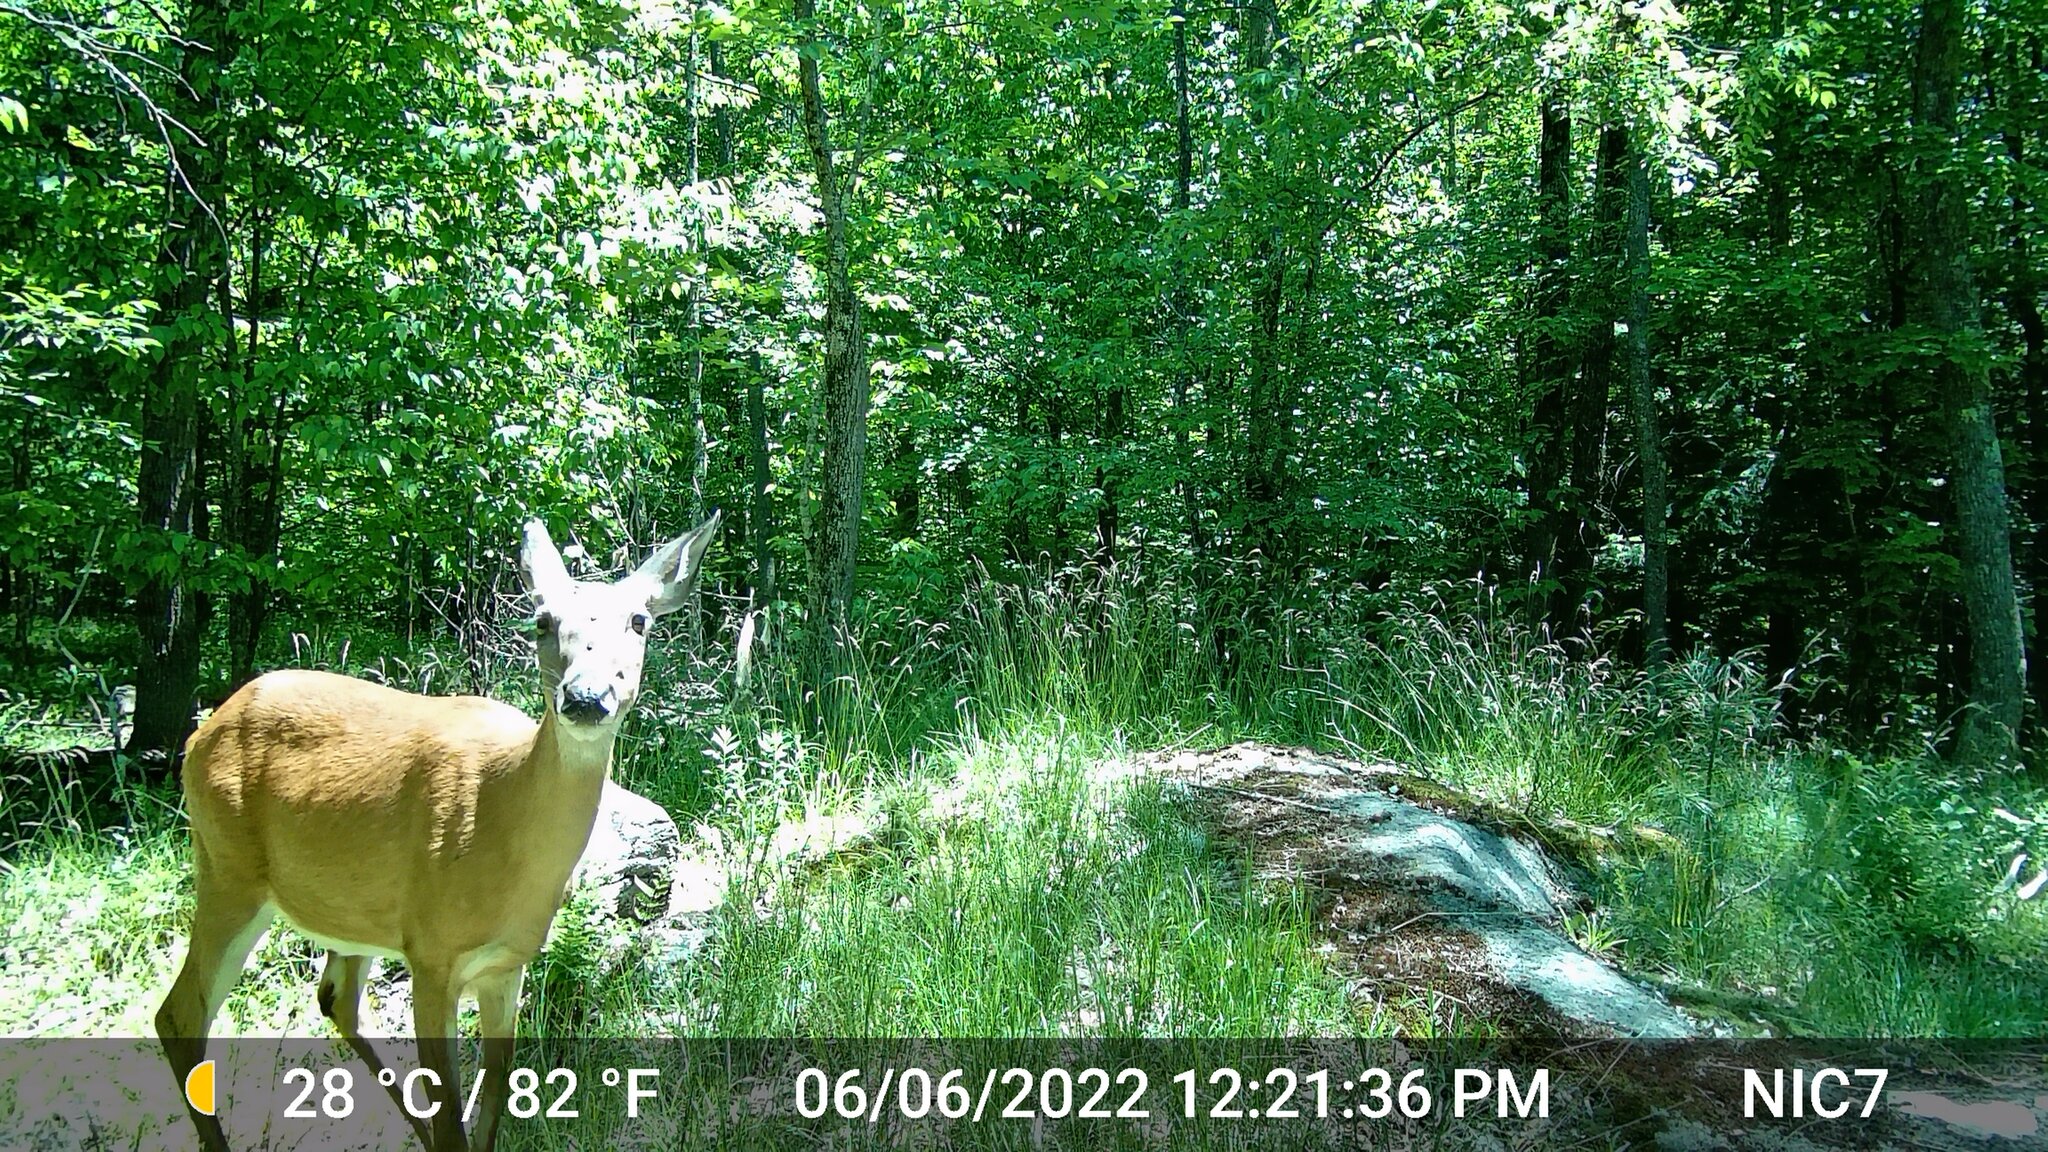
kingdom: Animalia
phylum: Chordata
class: Mammalia
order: Artiodactyla
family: Cervidae
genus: Odocoileus
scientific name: Odocoileus virginianus
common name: White-tailed deer
